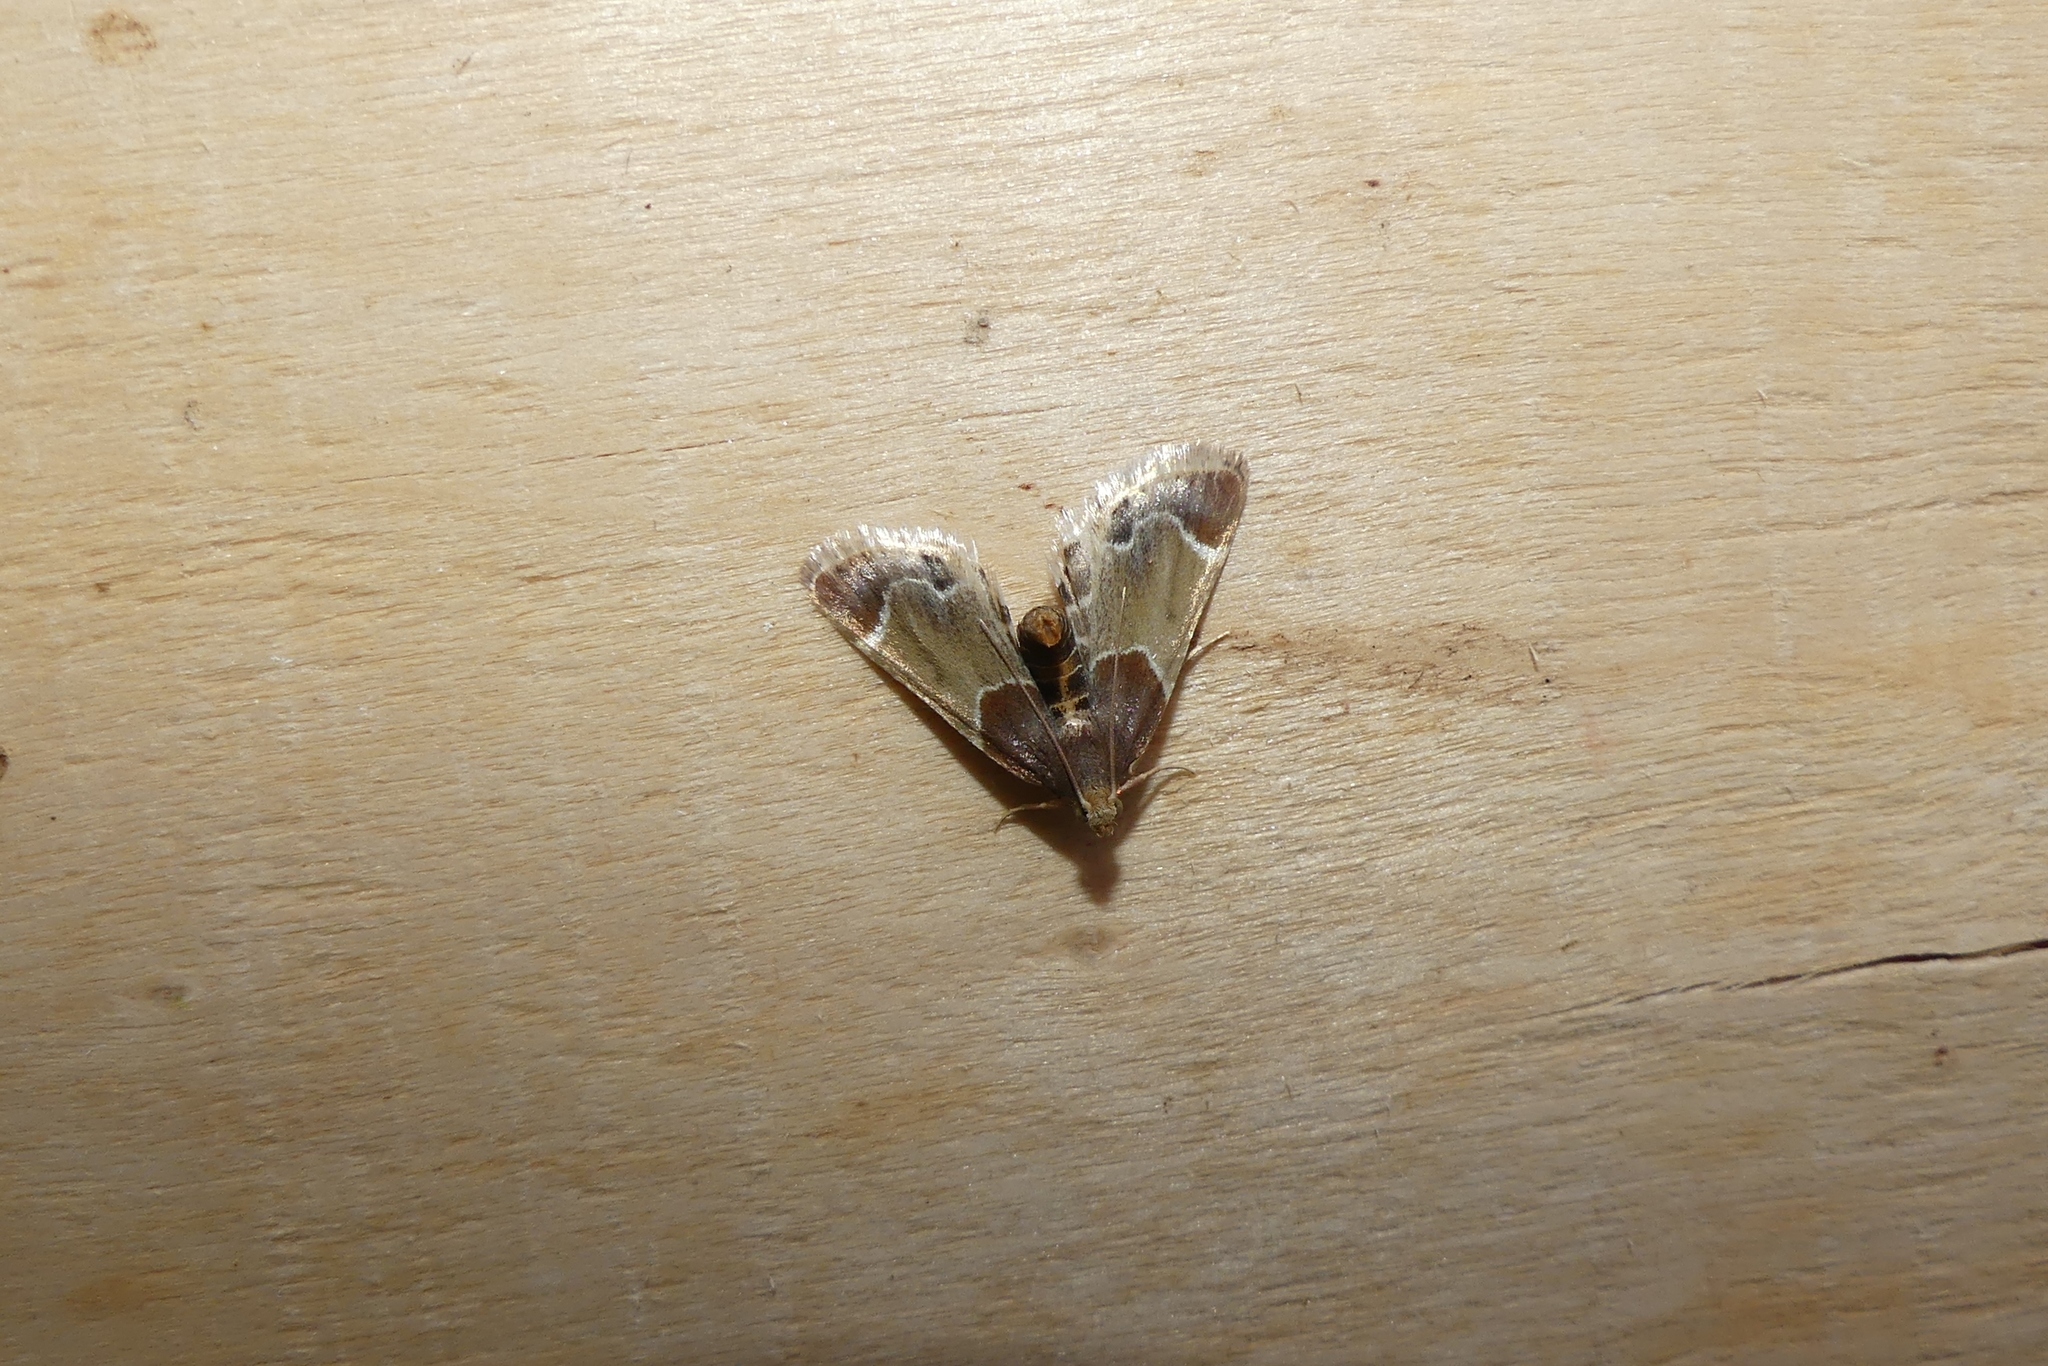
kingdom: Animalia
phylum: Arthropoda
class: Insecta
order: Lepidoptera
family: Pyralidae
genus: Pyralis
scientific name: Pyralis farinalis
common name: Meal moth
